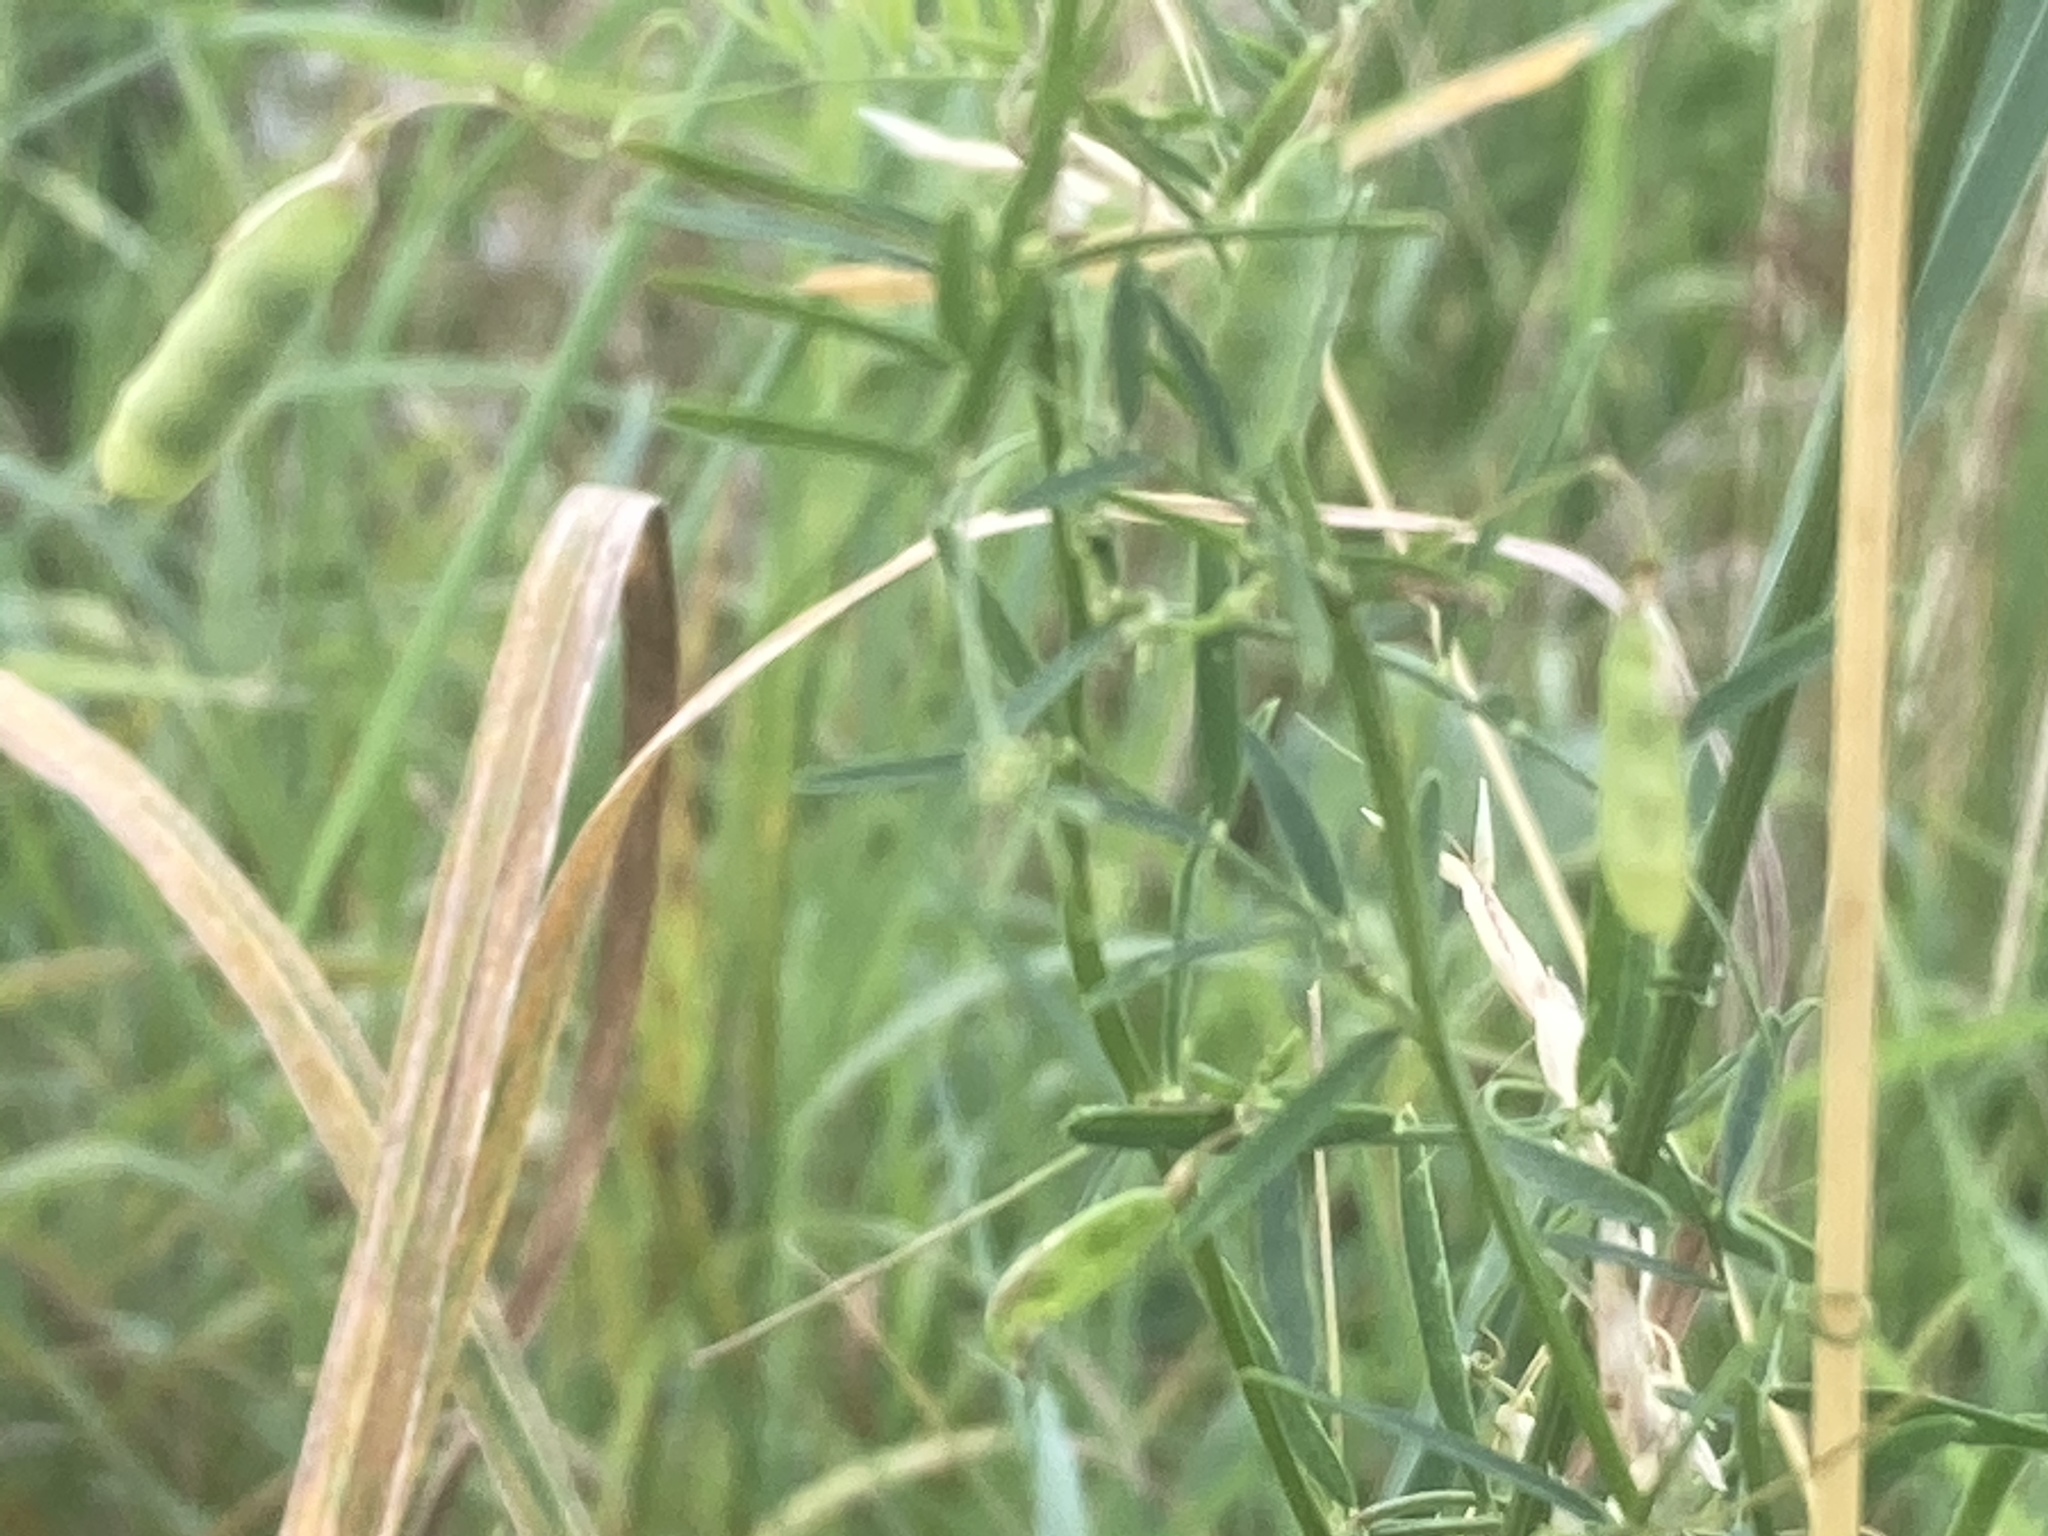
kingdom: Plantae
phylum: Tracheophyta
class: Magnoliopsida
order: Fabales
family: Fabaceae
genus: Vicia
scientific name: Vicia tetrasperma
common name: Smooth tare
